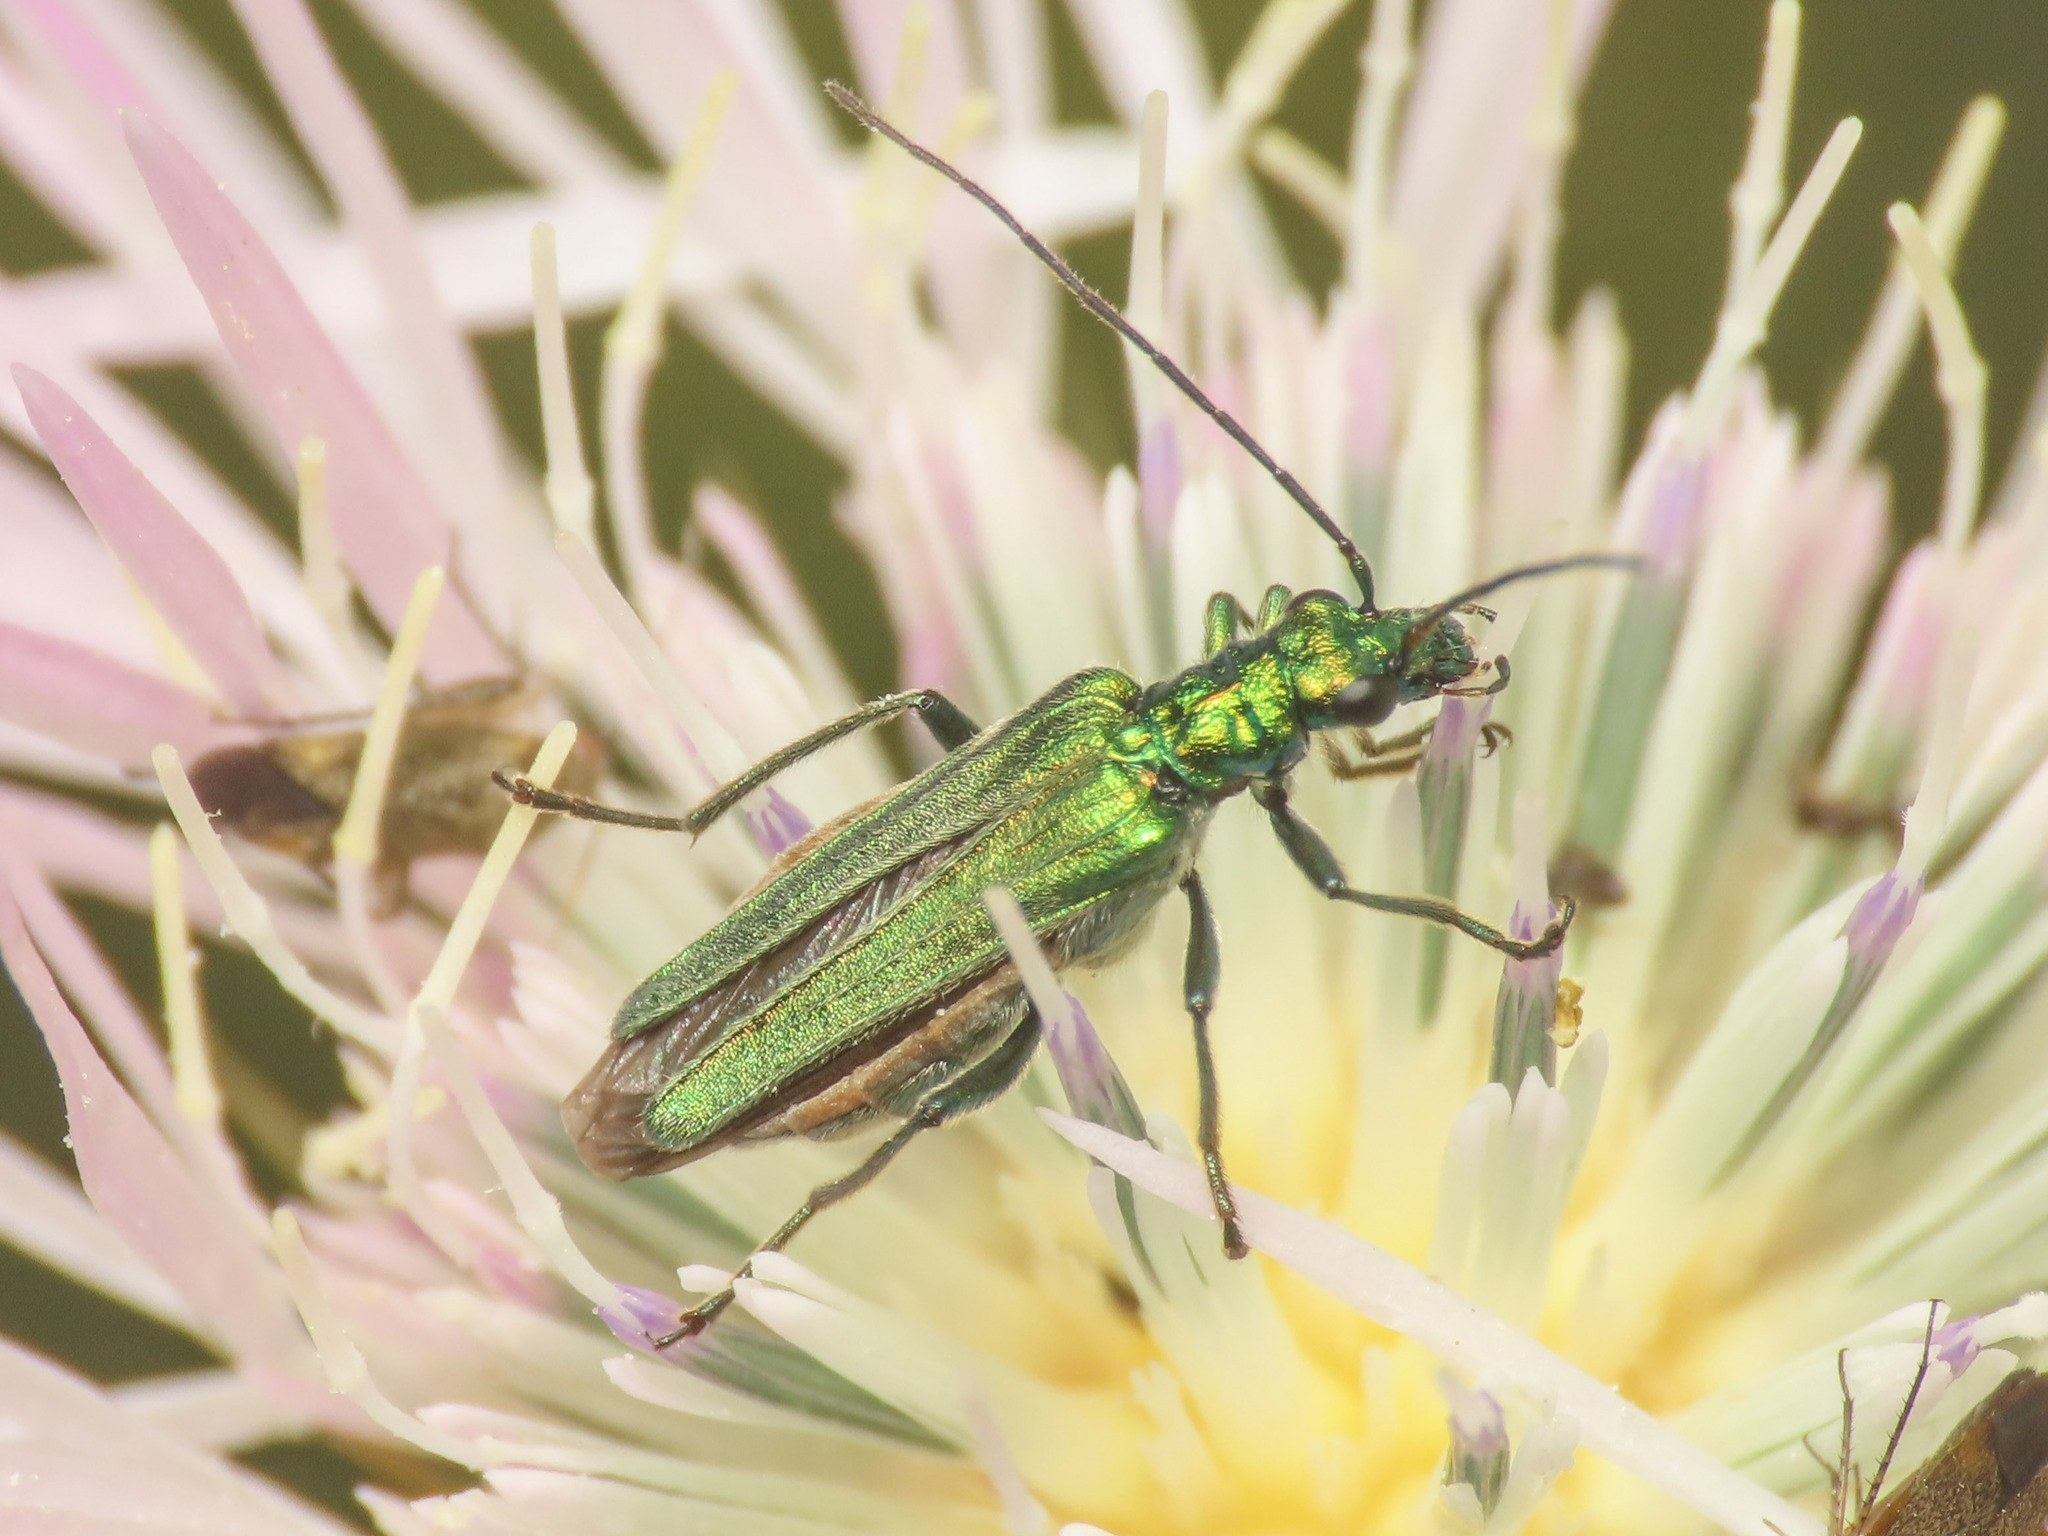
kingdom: Animalia
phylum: Arthropoda
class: Insecta
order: Coleoptera
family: Oedemeridae
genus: Oedemera
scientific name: Oedemera nobilis
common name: Swollen-thighed beetle
